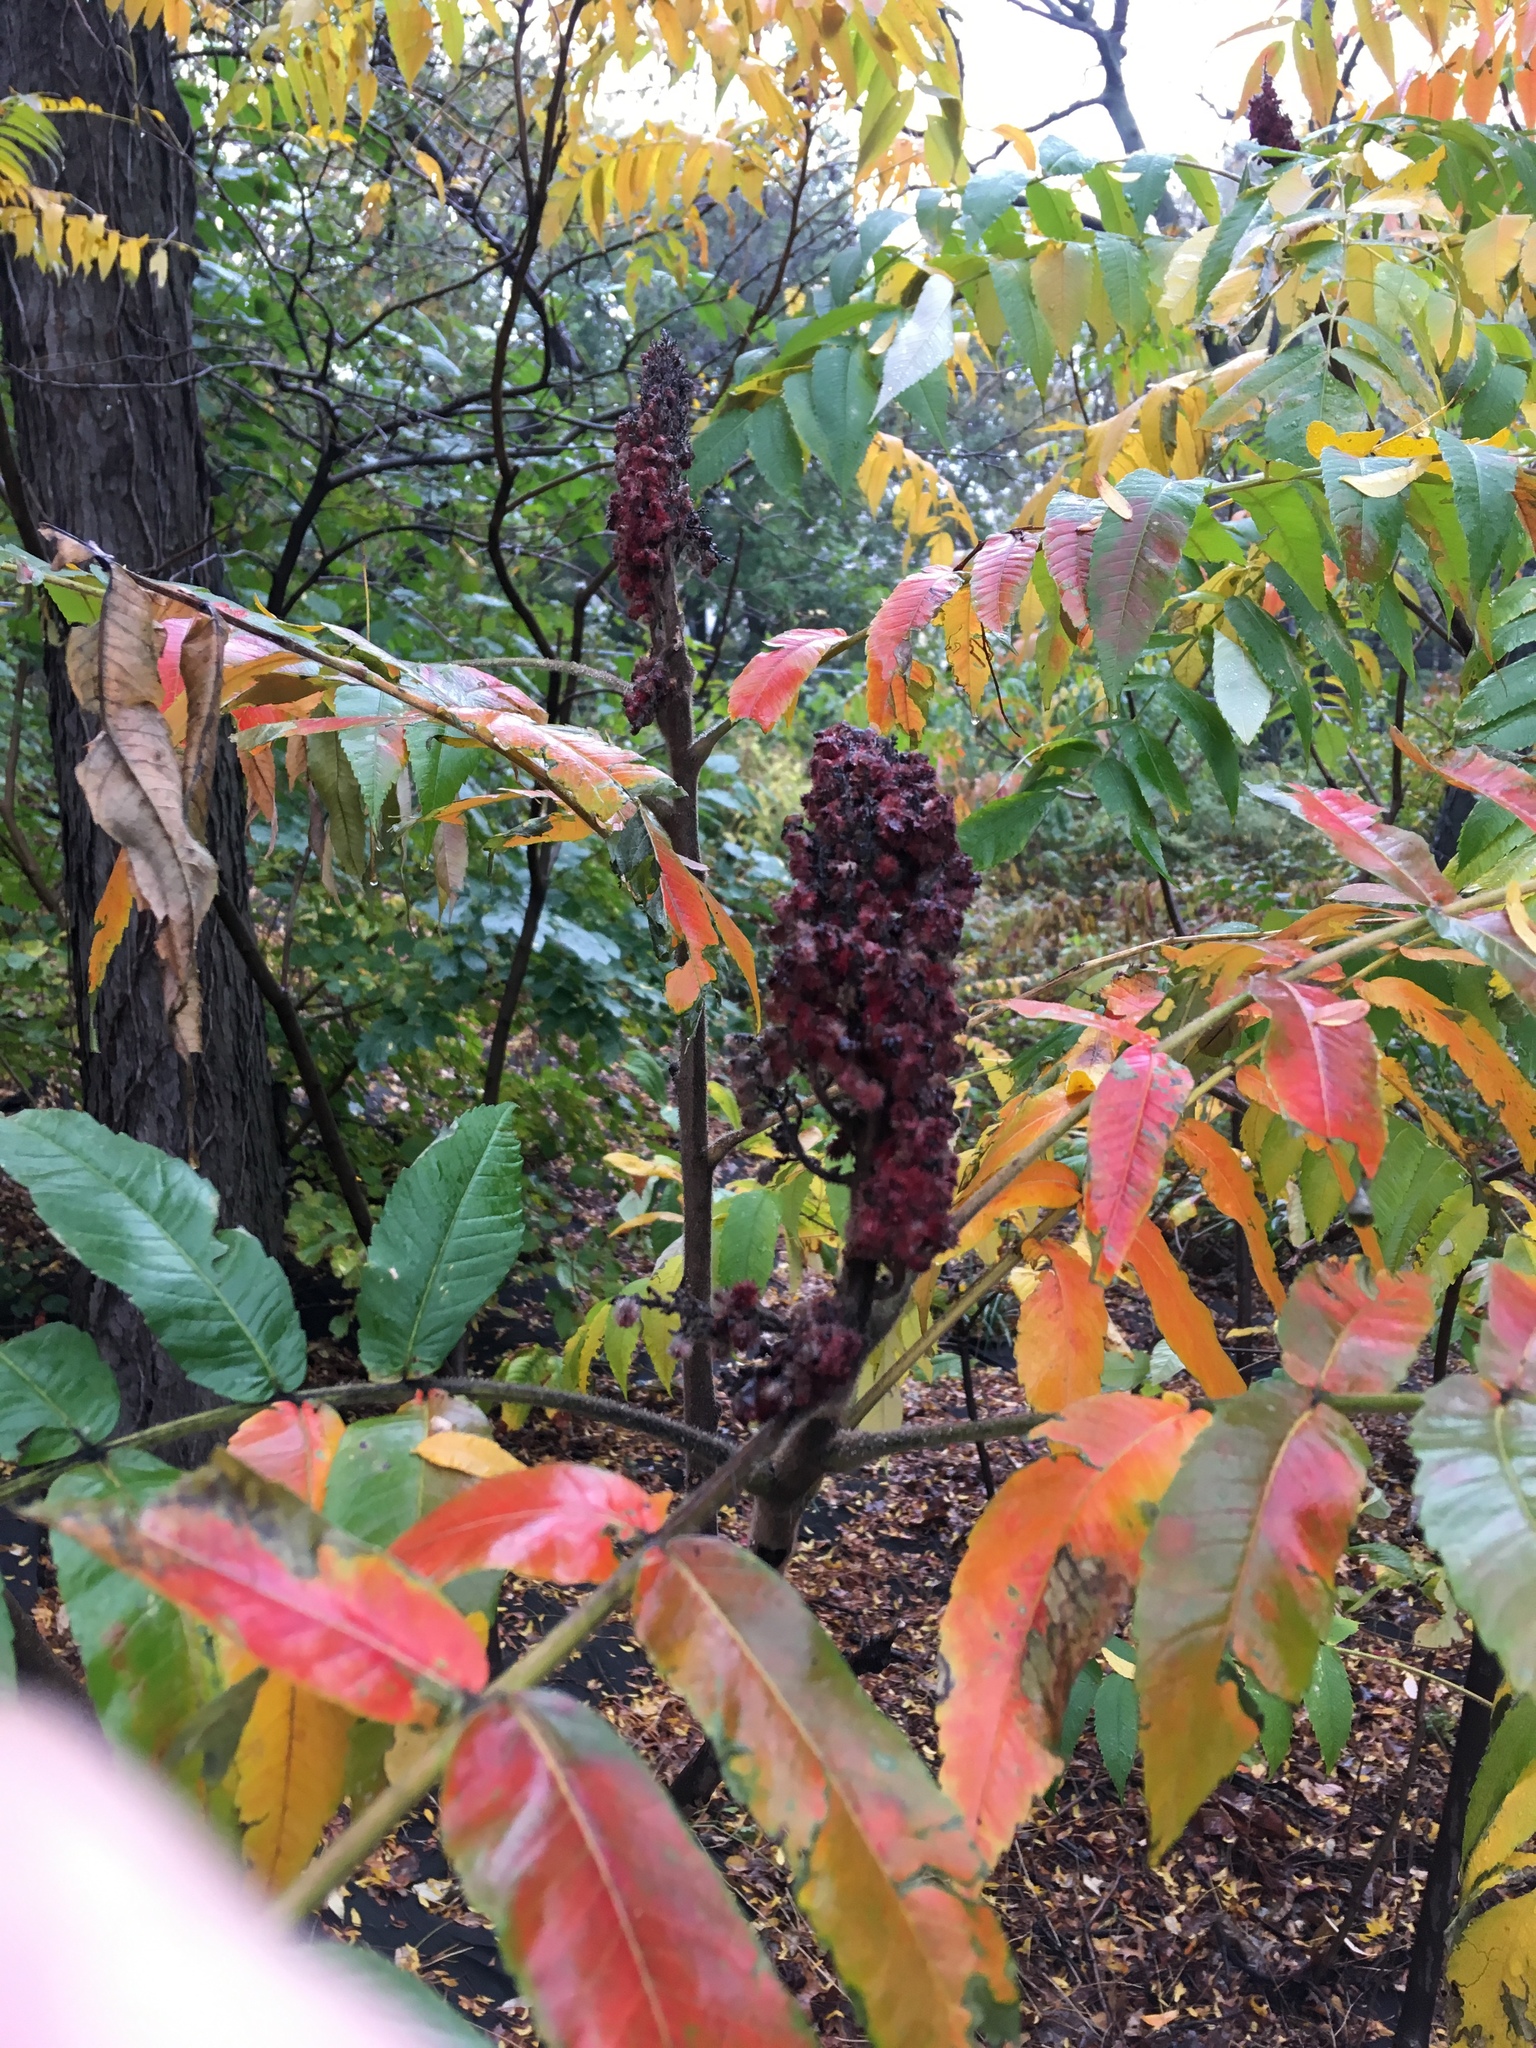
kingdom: Plantae
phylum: Tracheophyta
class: Magnoliopsida
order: Sapindales
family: Anacardiaceae
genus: Rhus
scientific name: Rhus typhina
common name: Staghorn sumac
